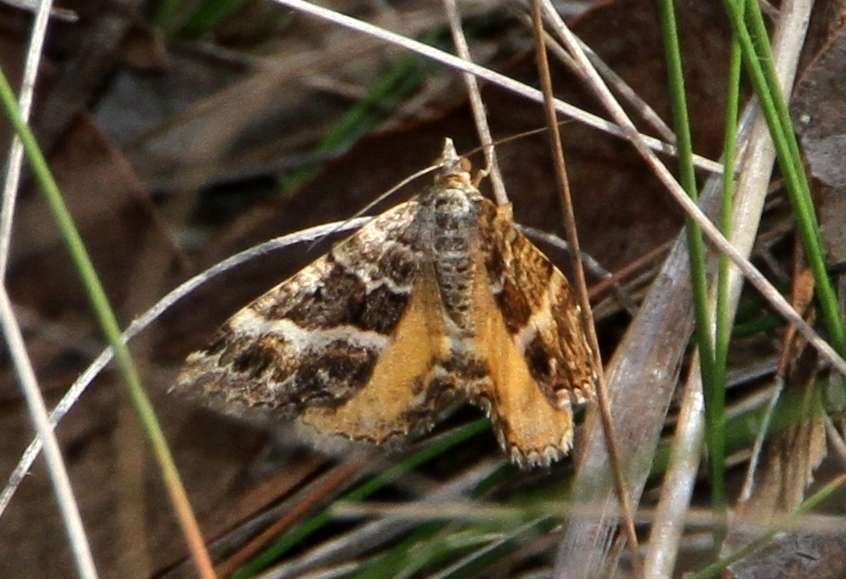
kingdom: Animalia
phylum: Arthropoda
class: Insecta
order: Lepidoptera
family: Geometridae
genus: Chrysolarentia
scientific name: Chrysolarentia vicissata
